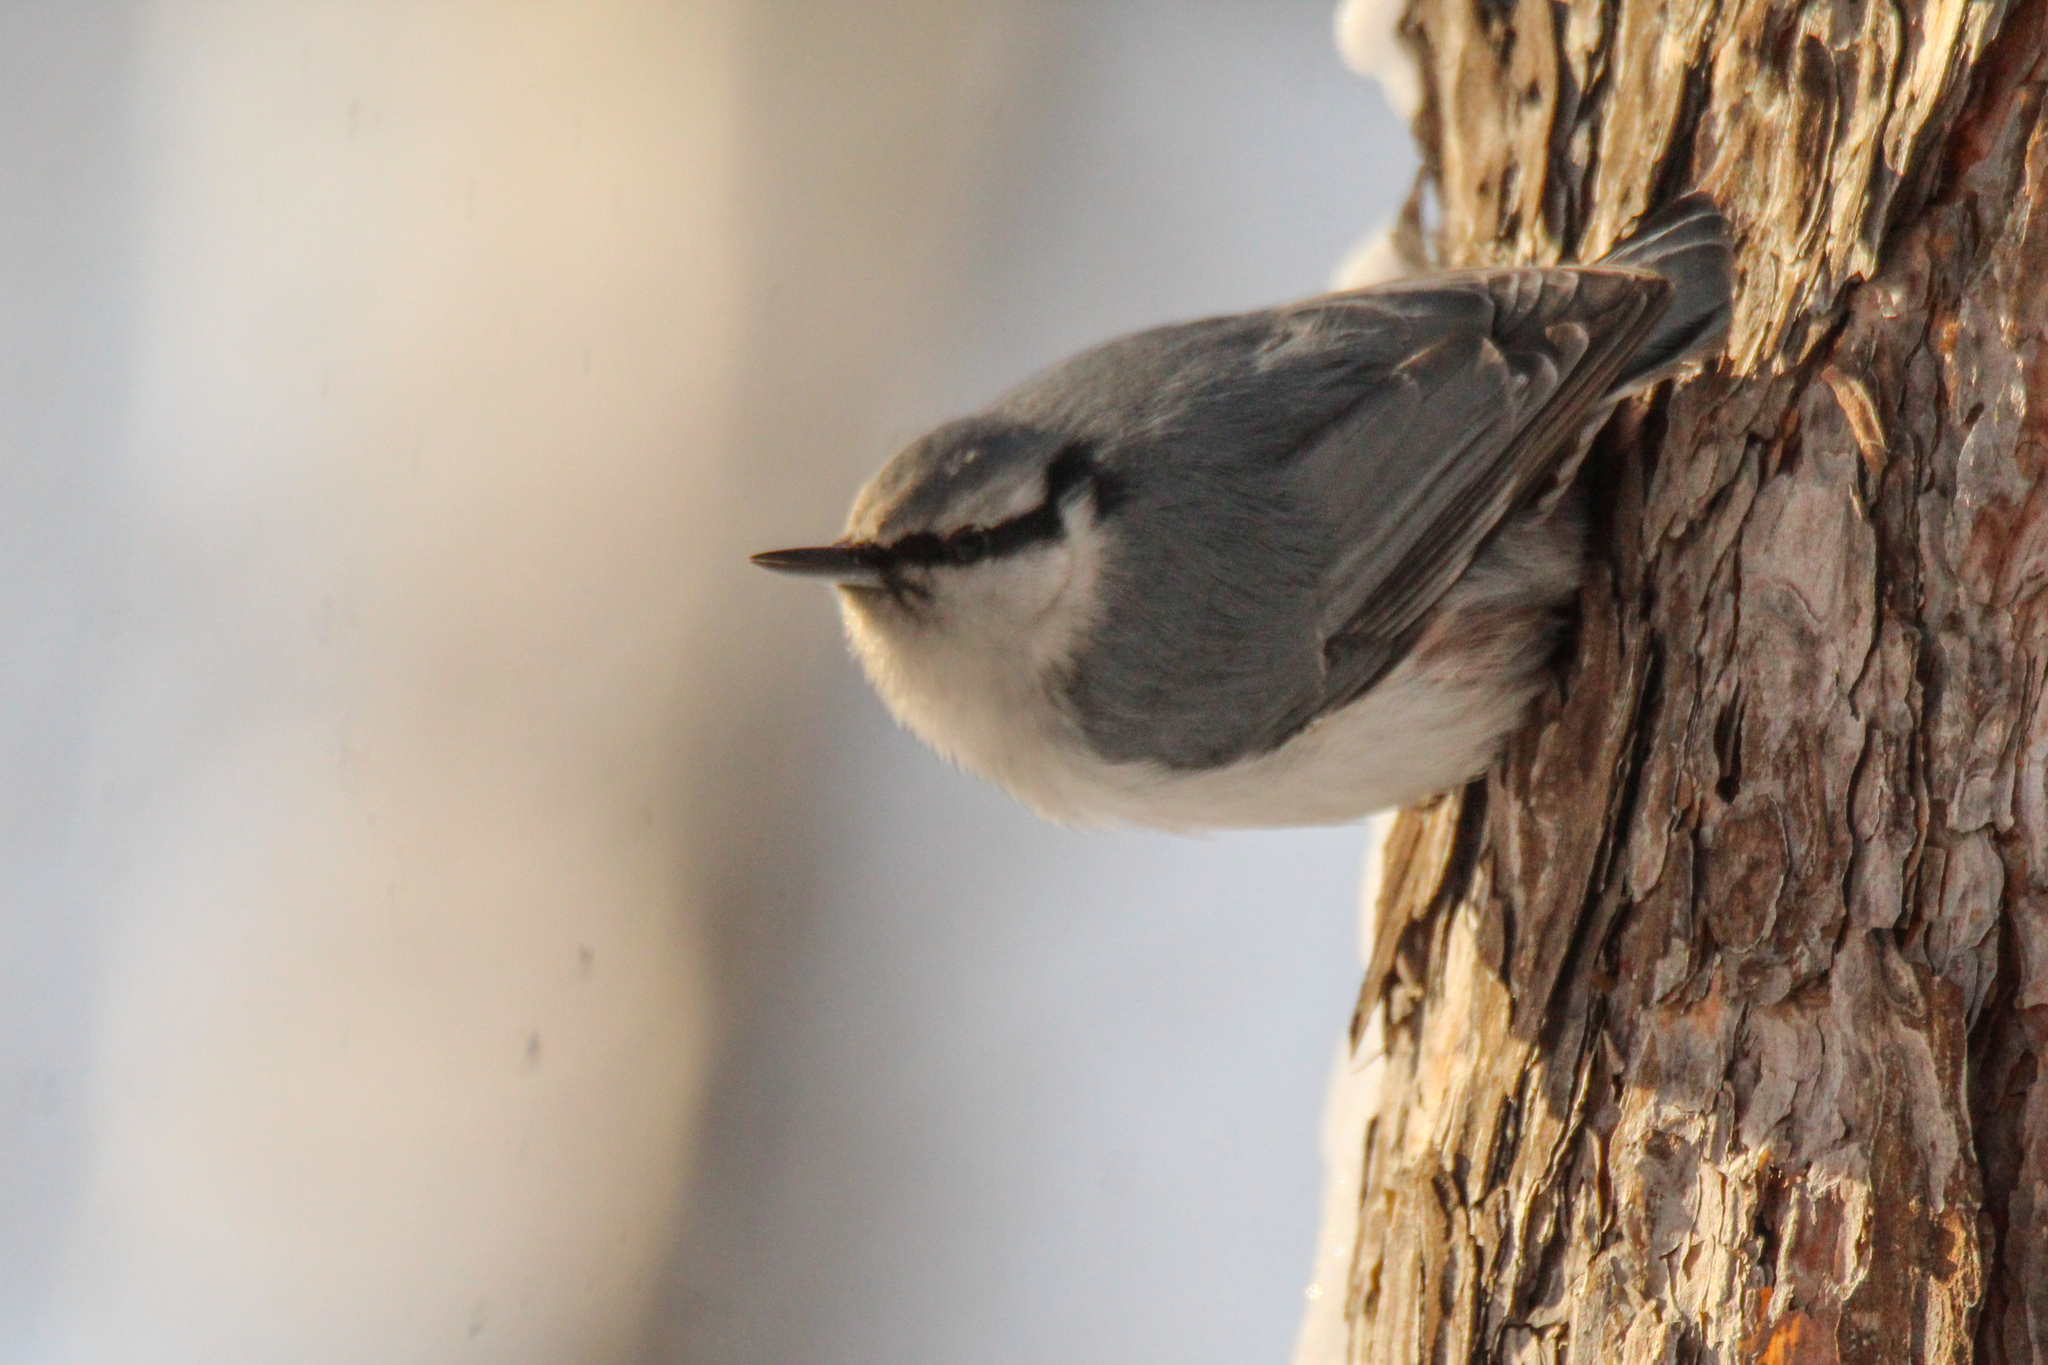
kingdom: Animalia
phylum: Chordata
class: Aves
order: Passeriformes
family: Sittidae
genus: Sitta
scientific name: Sitta europaea
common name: Eurasian nuthatch
